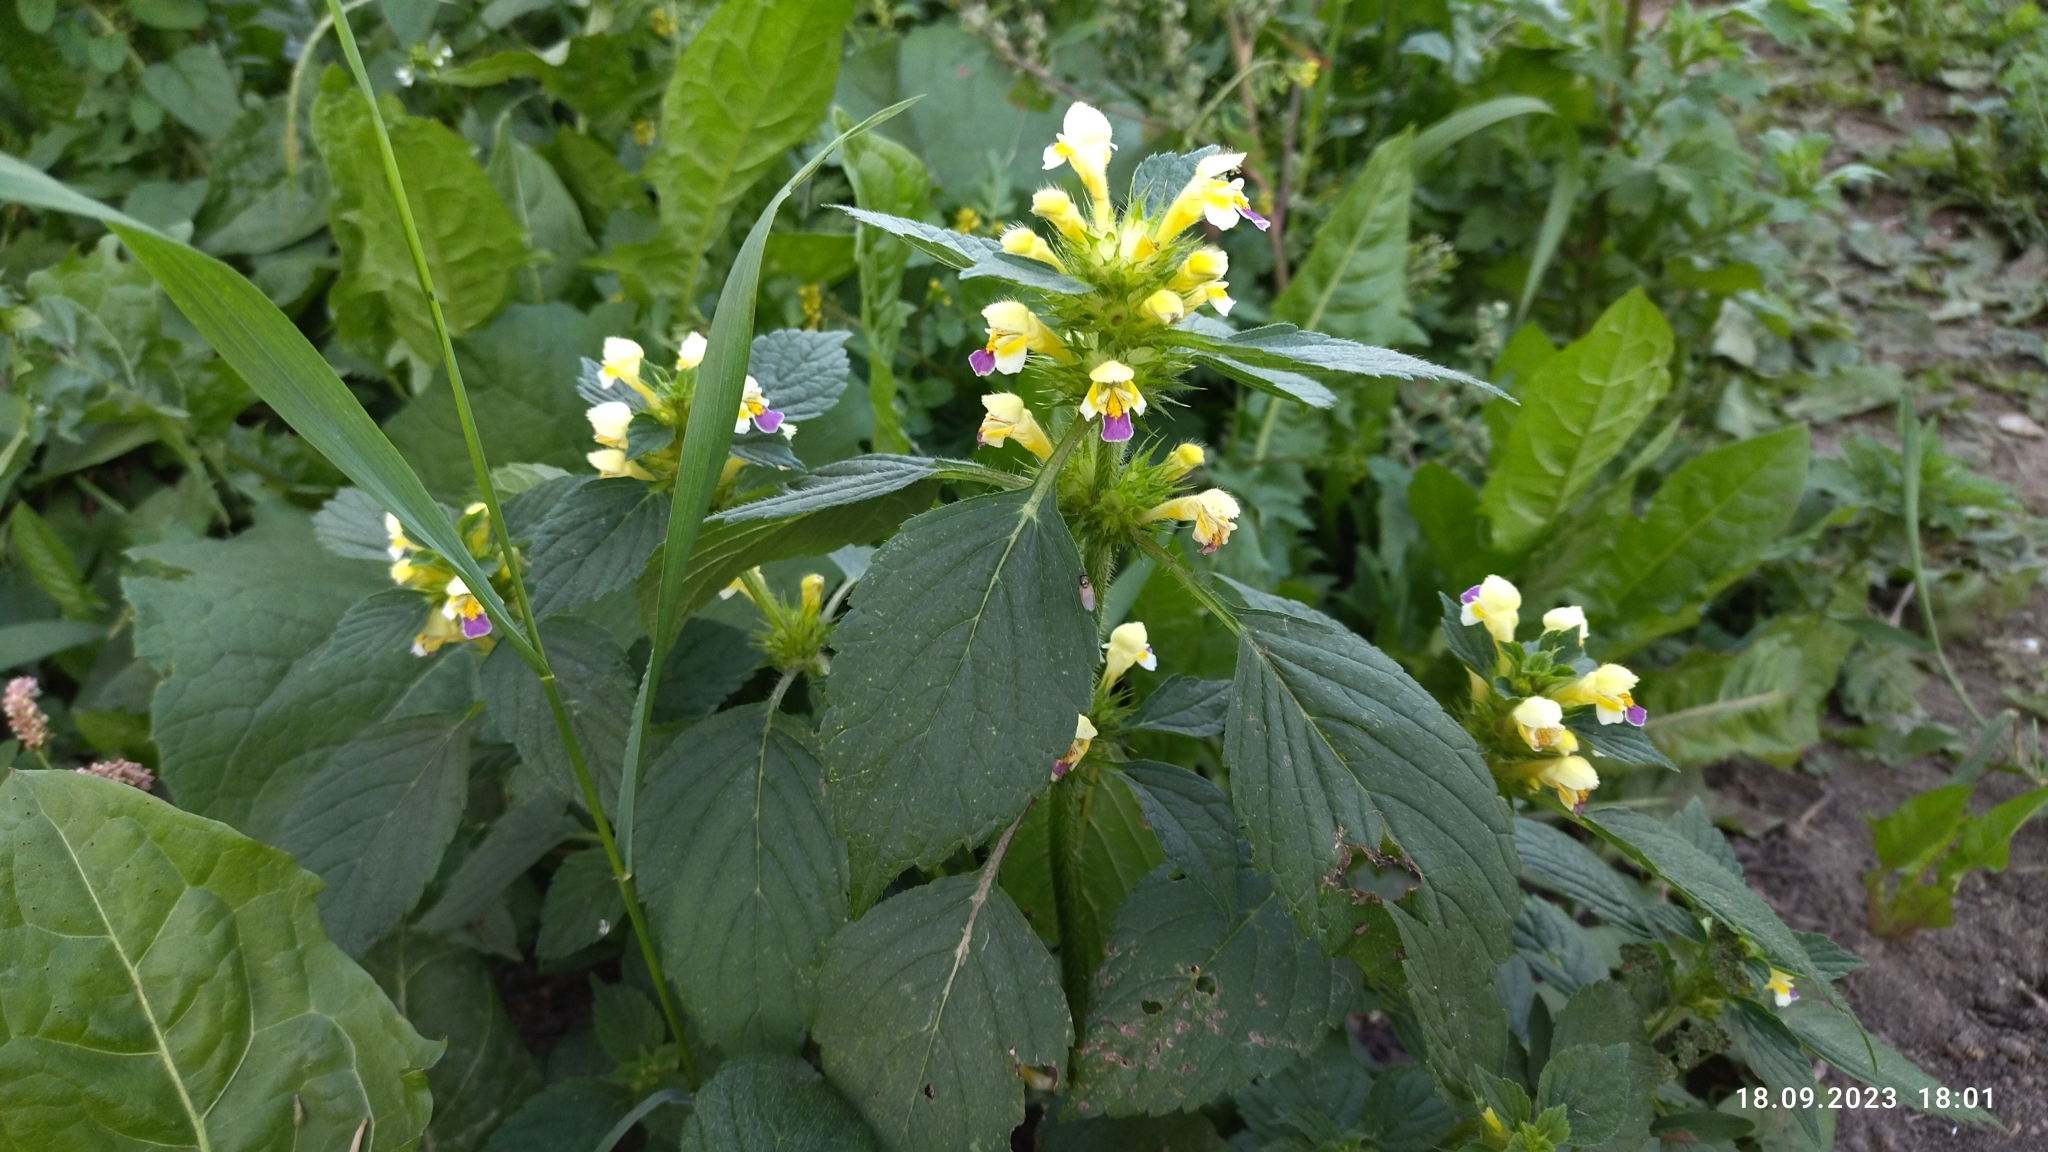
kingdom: Plantae
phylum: Tracheophyta
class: Magnoliopsida
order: Lamiales
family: Lamiaceae
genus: Galeopsis
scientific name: Galeopsis speciosa
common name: Large-flowered hemp-nettle
